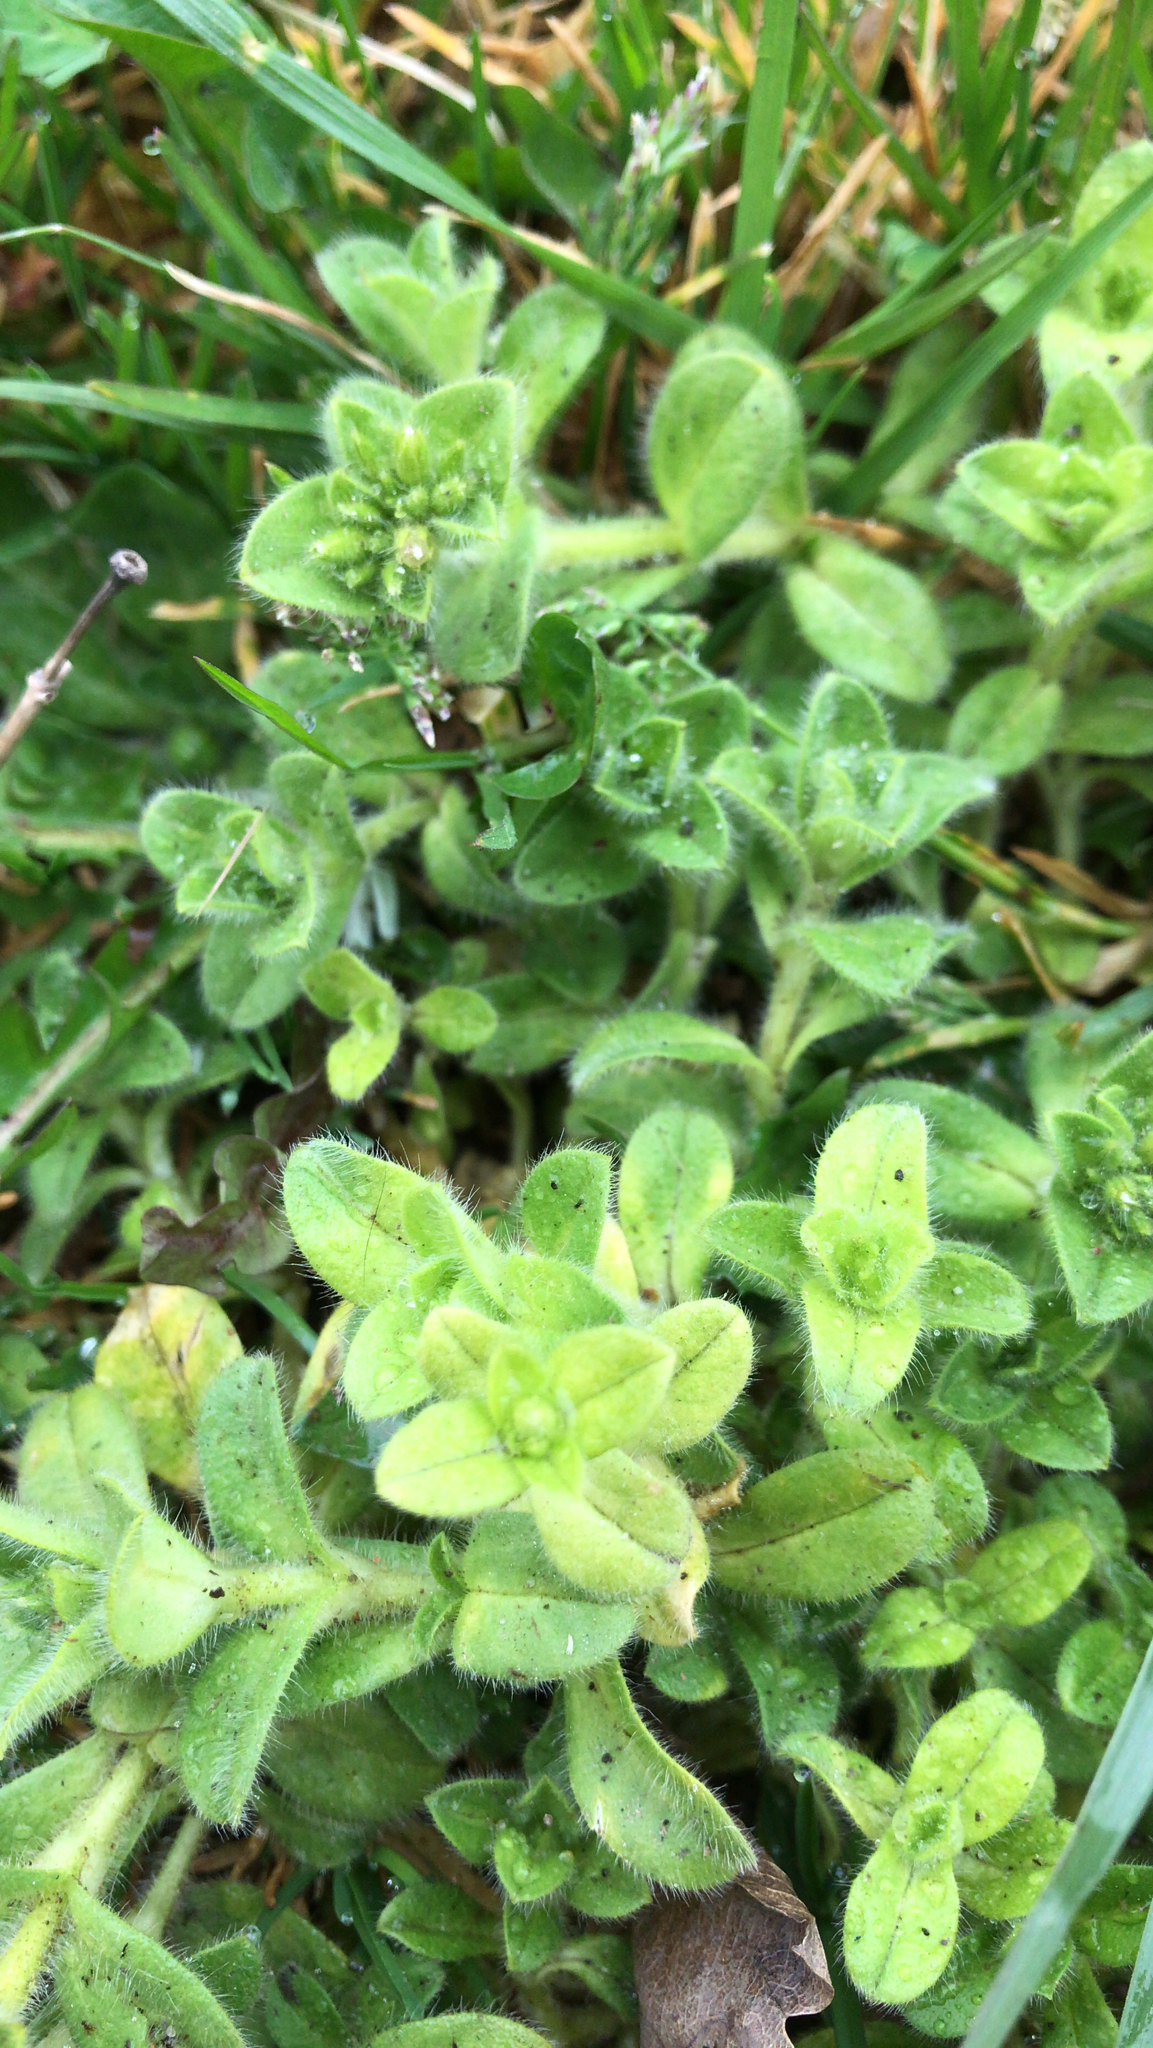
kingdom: Plantae
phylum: Tracheophyta
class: Magnoliopsida
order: Caryophyllales
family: Caryophyllaceae
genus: Cerastium
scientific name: Cerastium glomeratum
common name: Sticky chickweed
